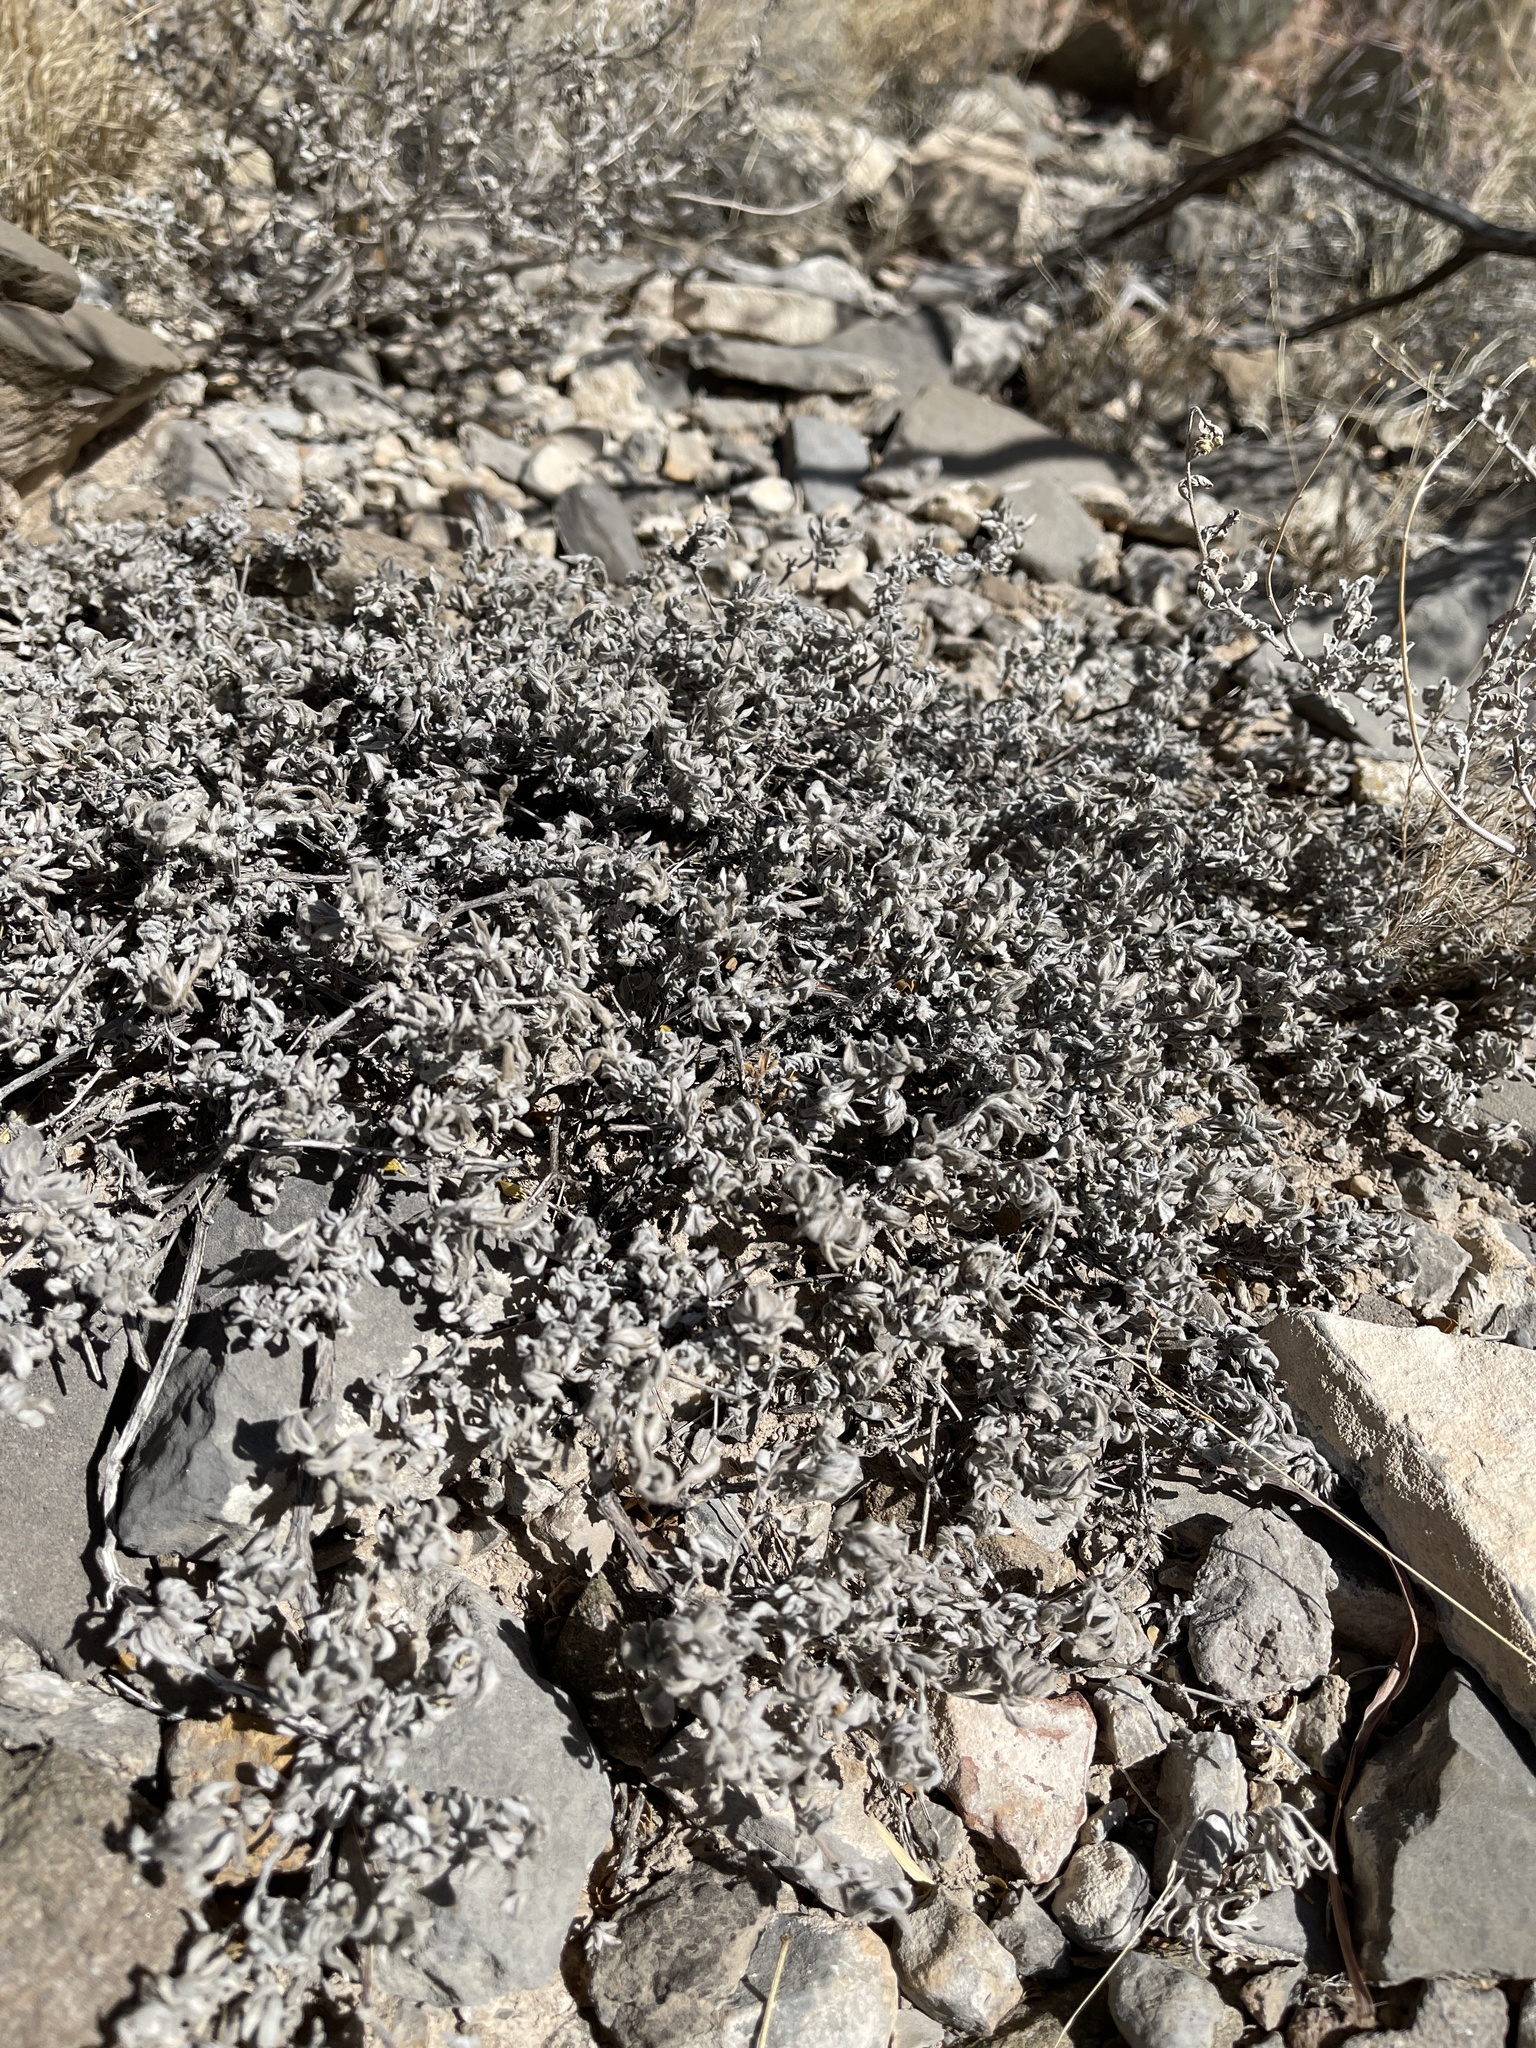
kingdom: Plantae
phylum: Tracheophyta
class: Magnoliopsida
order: Boraginales
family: Ehretiaceae
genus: Tiquilia
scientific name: Tiquilia canescens
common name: Hairy tiquilia
